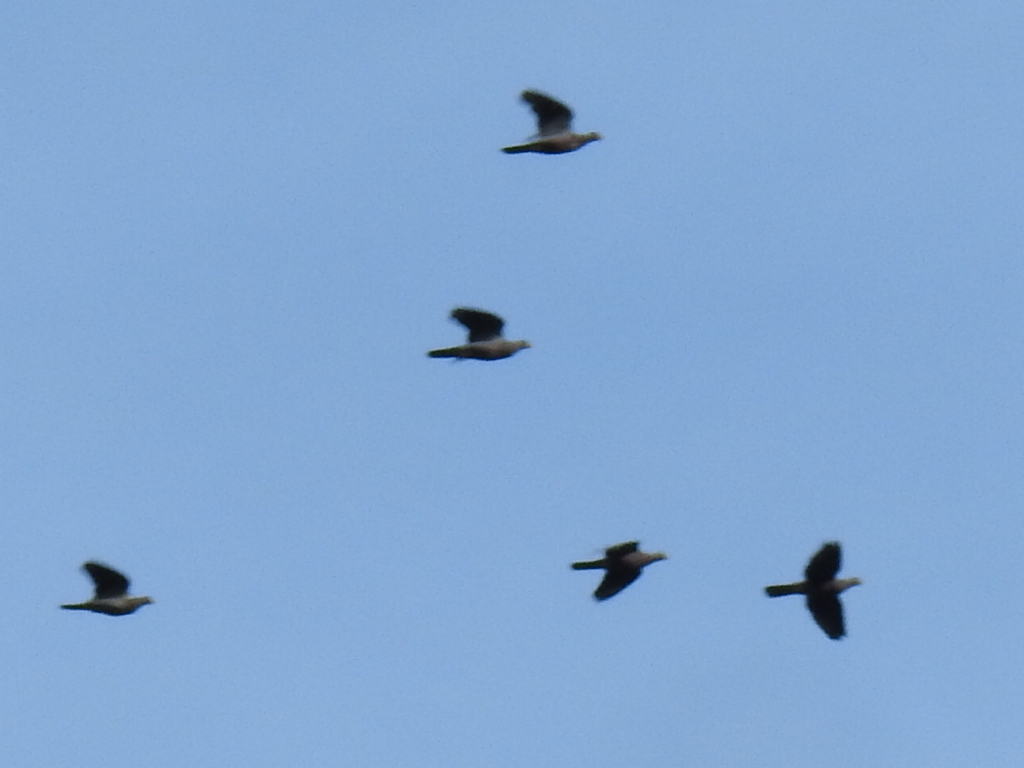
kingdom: Animalia
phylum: Chordata
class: Aves
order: Columbiformes
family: Columbidae
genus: Patagioenas
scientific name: Patagioenas fasciata
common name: Band-tailed pigeon
